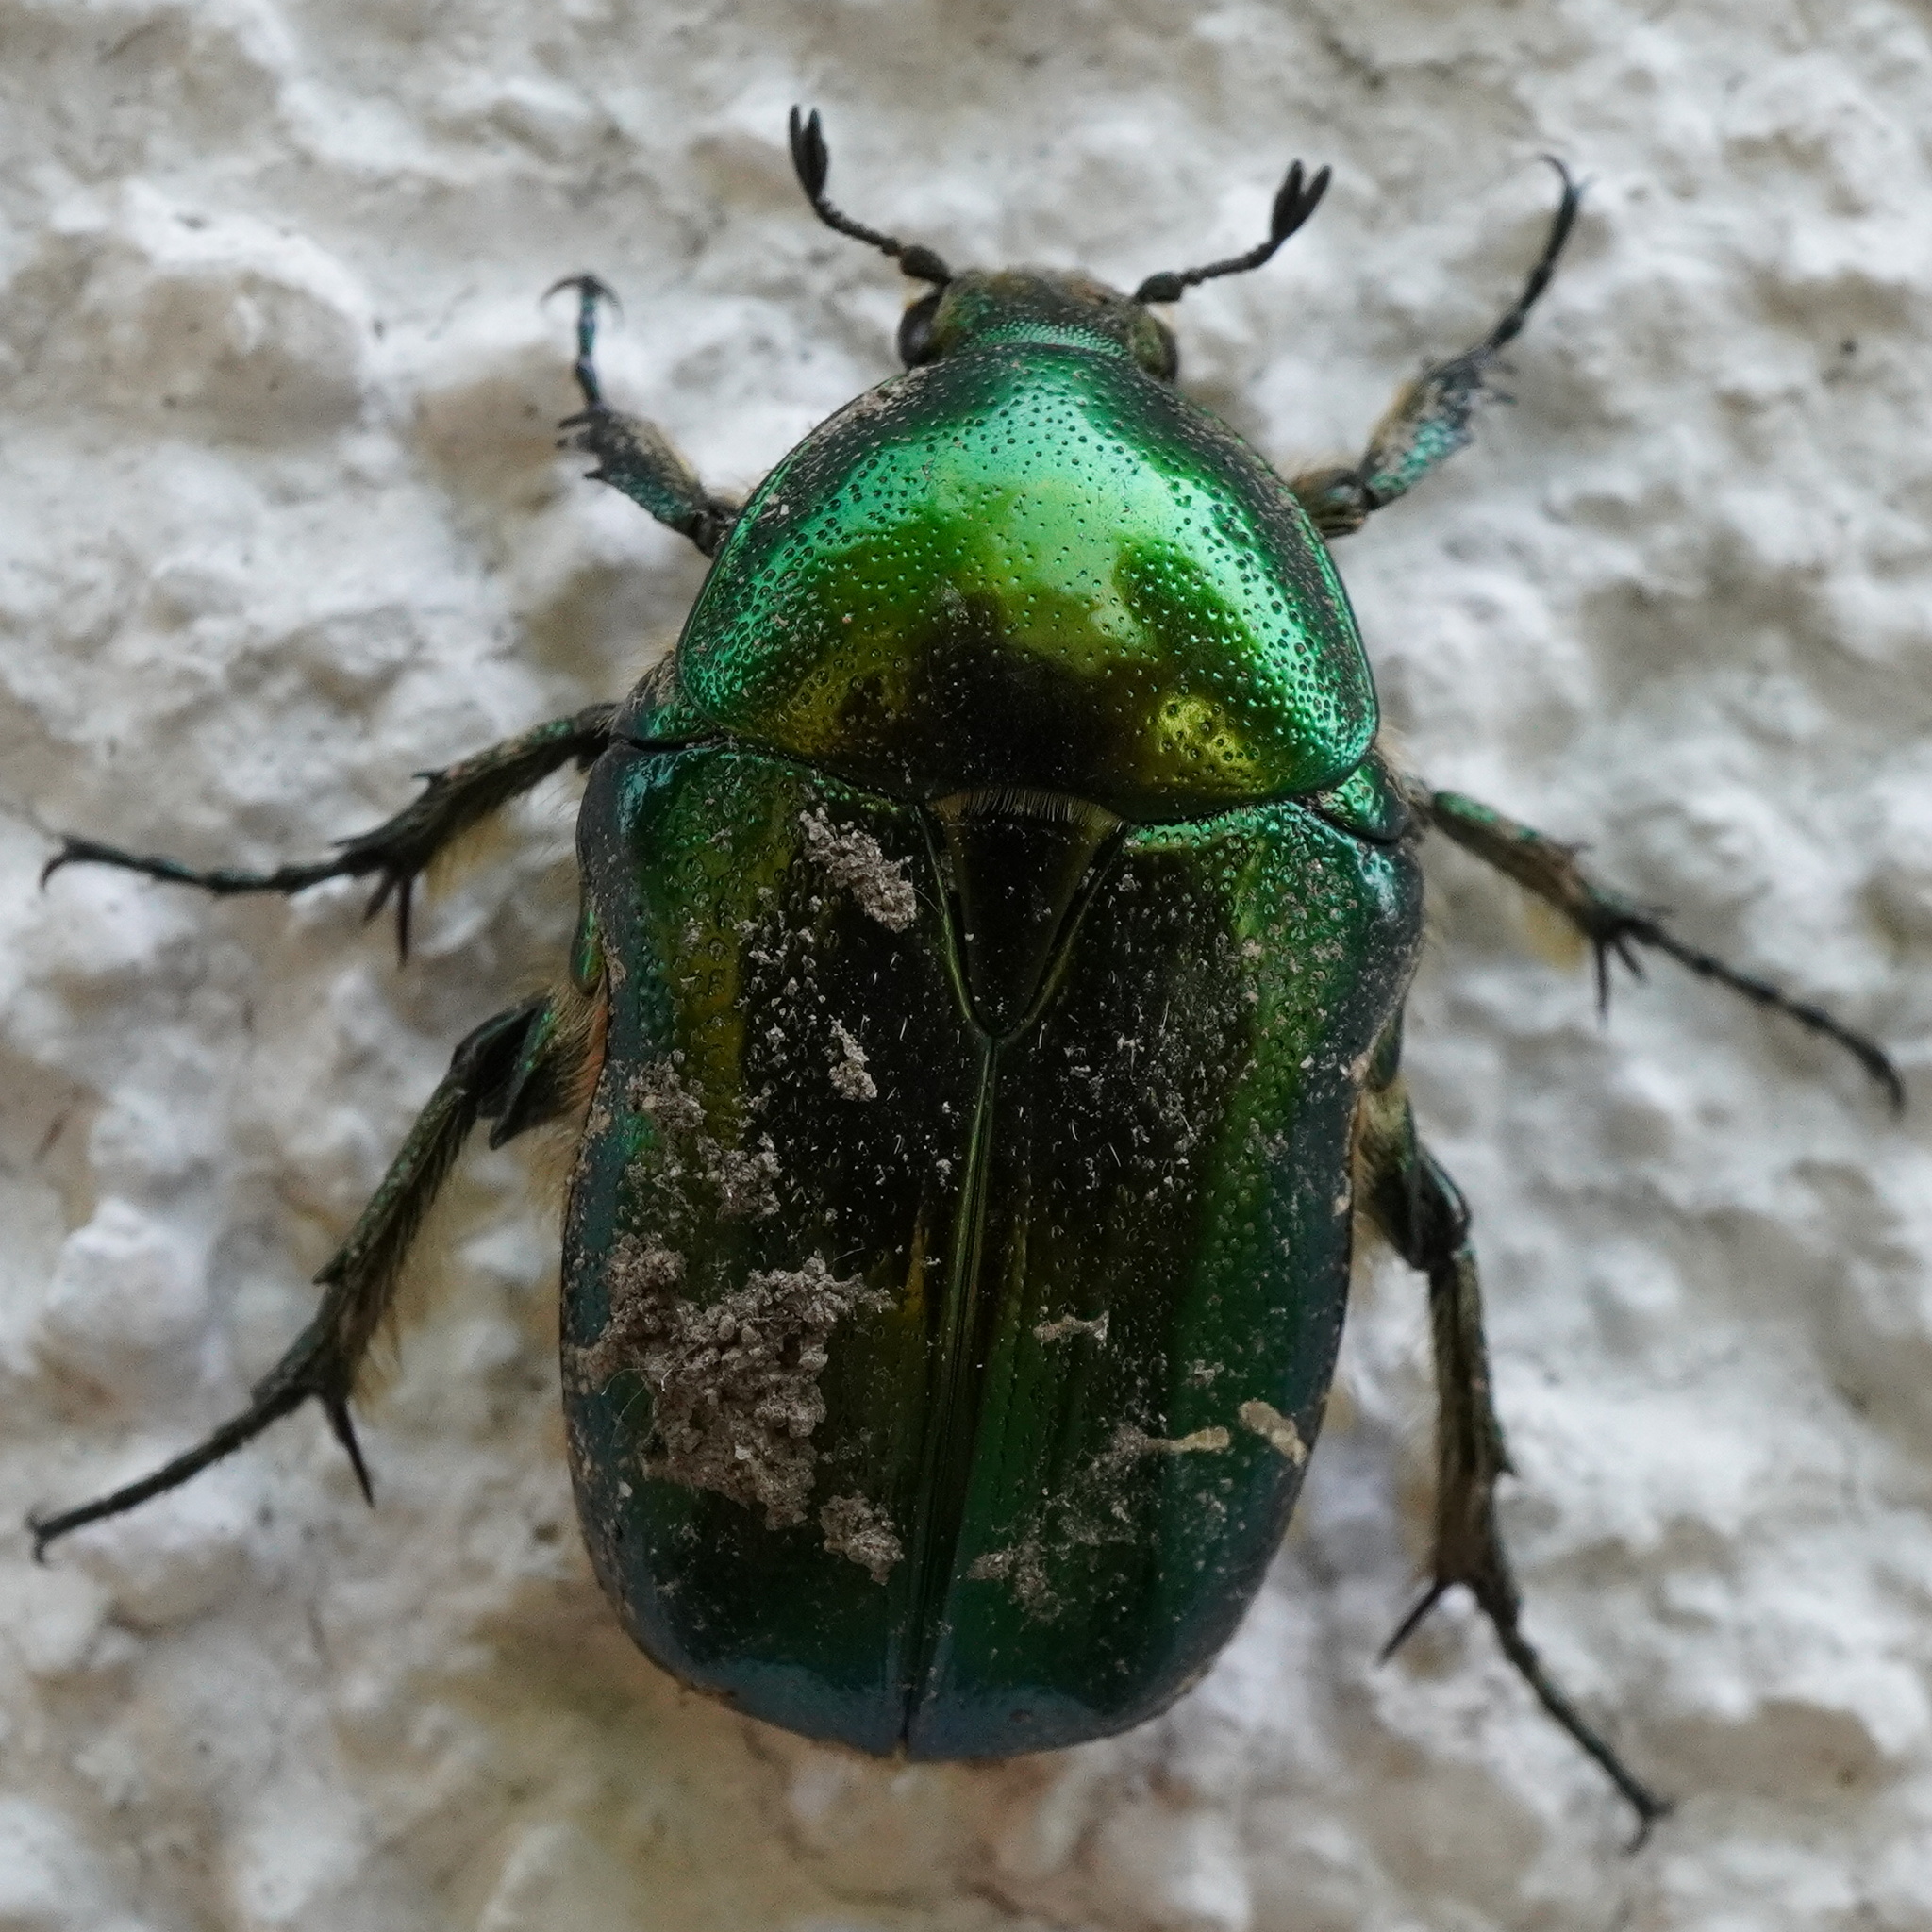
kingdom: Animalia
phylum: Arthropoda
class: Insecta
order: Coleoptera
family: Scarabaeidae
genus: Cetonia
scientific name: Cetonia aurata
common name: Rose chafer
